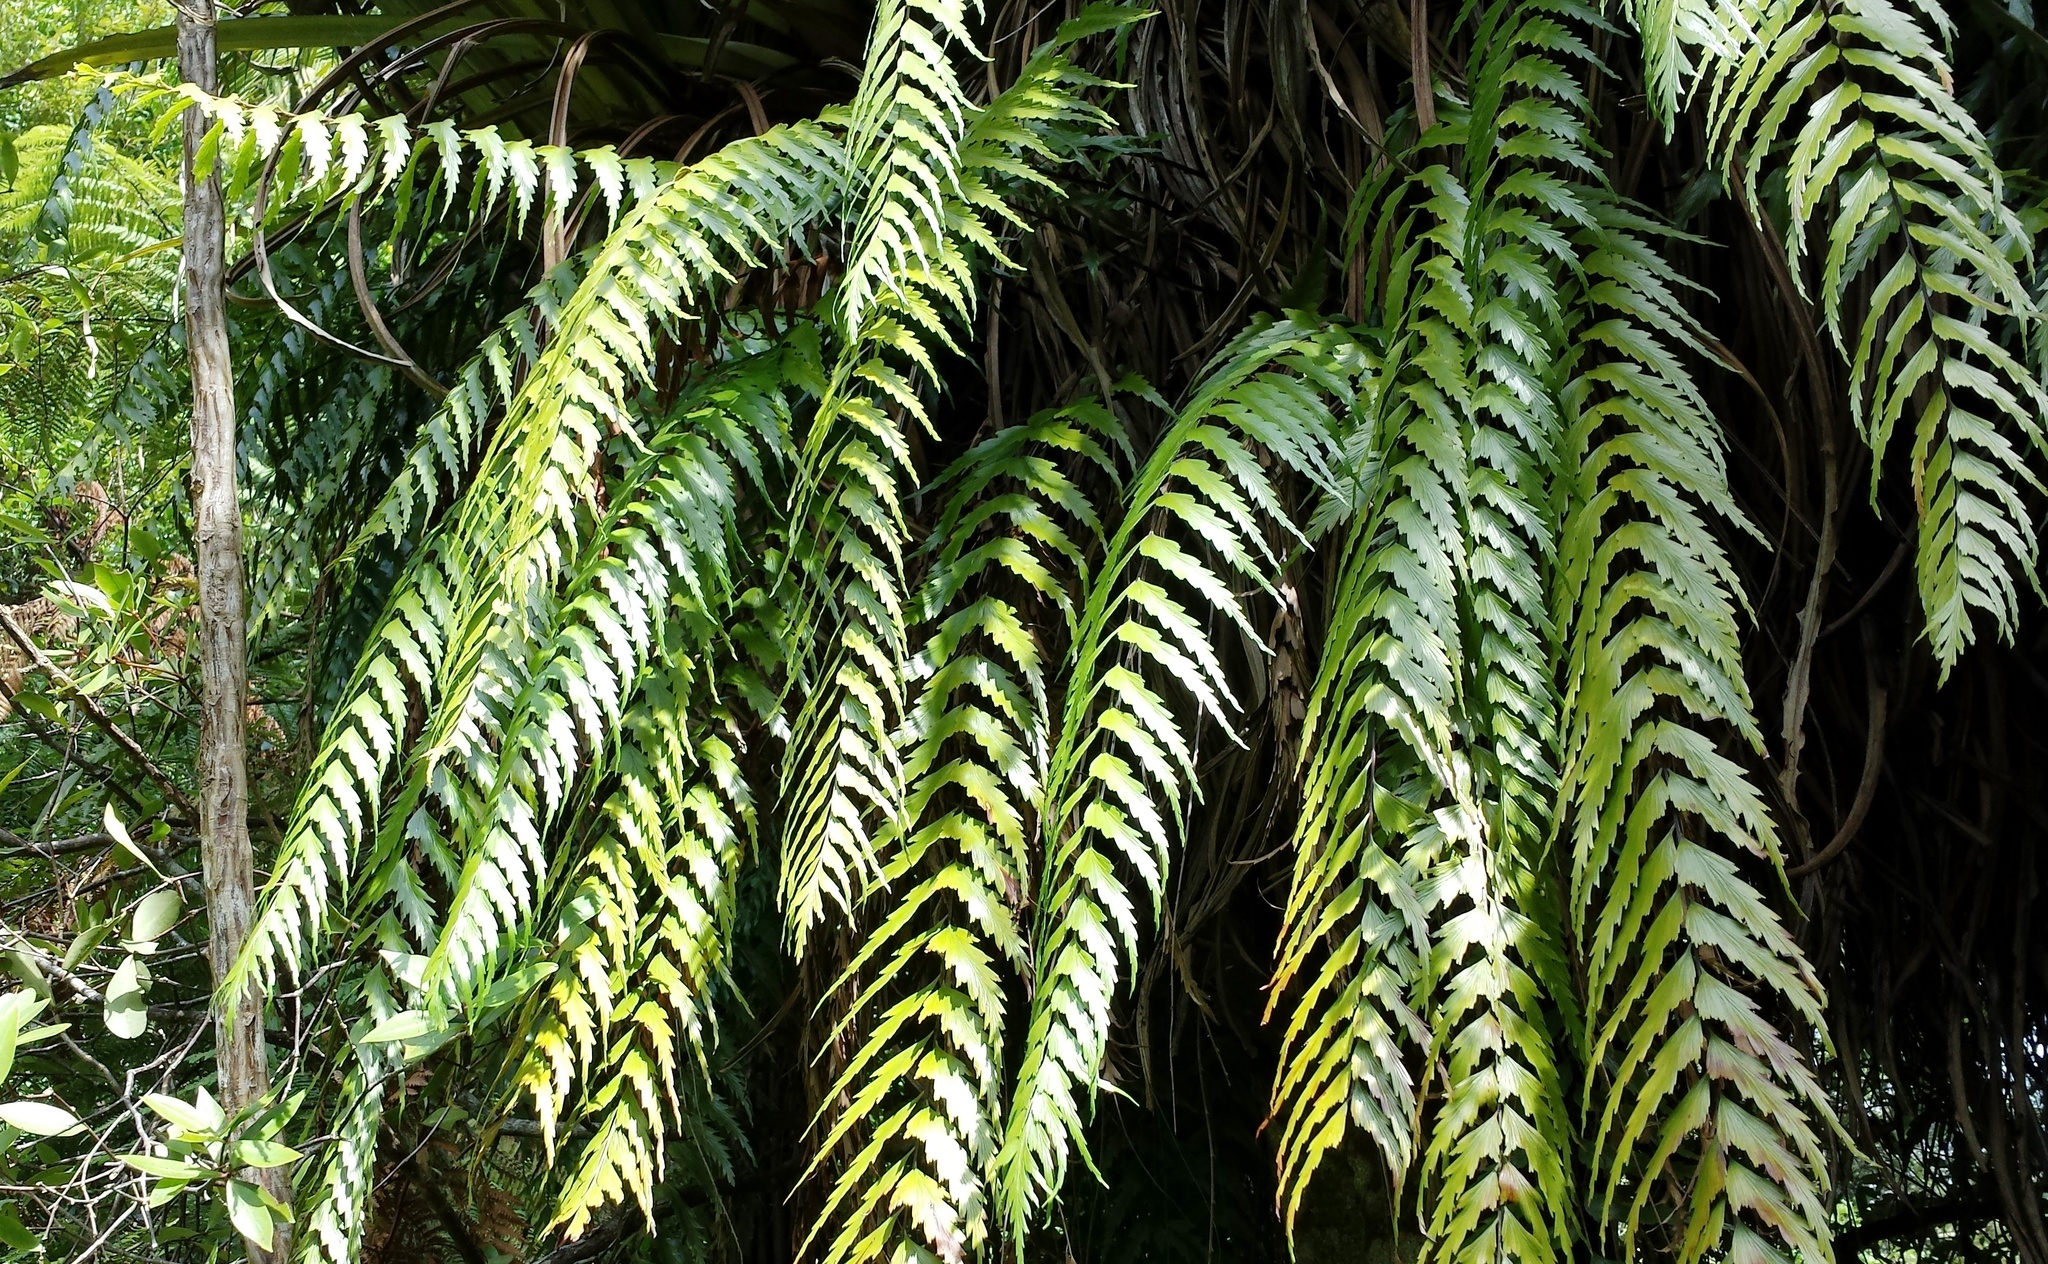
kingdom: Plantae
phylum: Tracheophyta
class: Polypodiopsida
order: Polypodiales
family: Aspleniaceae
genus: Asplenium
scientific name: Asplenium polyodon
